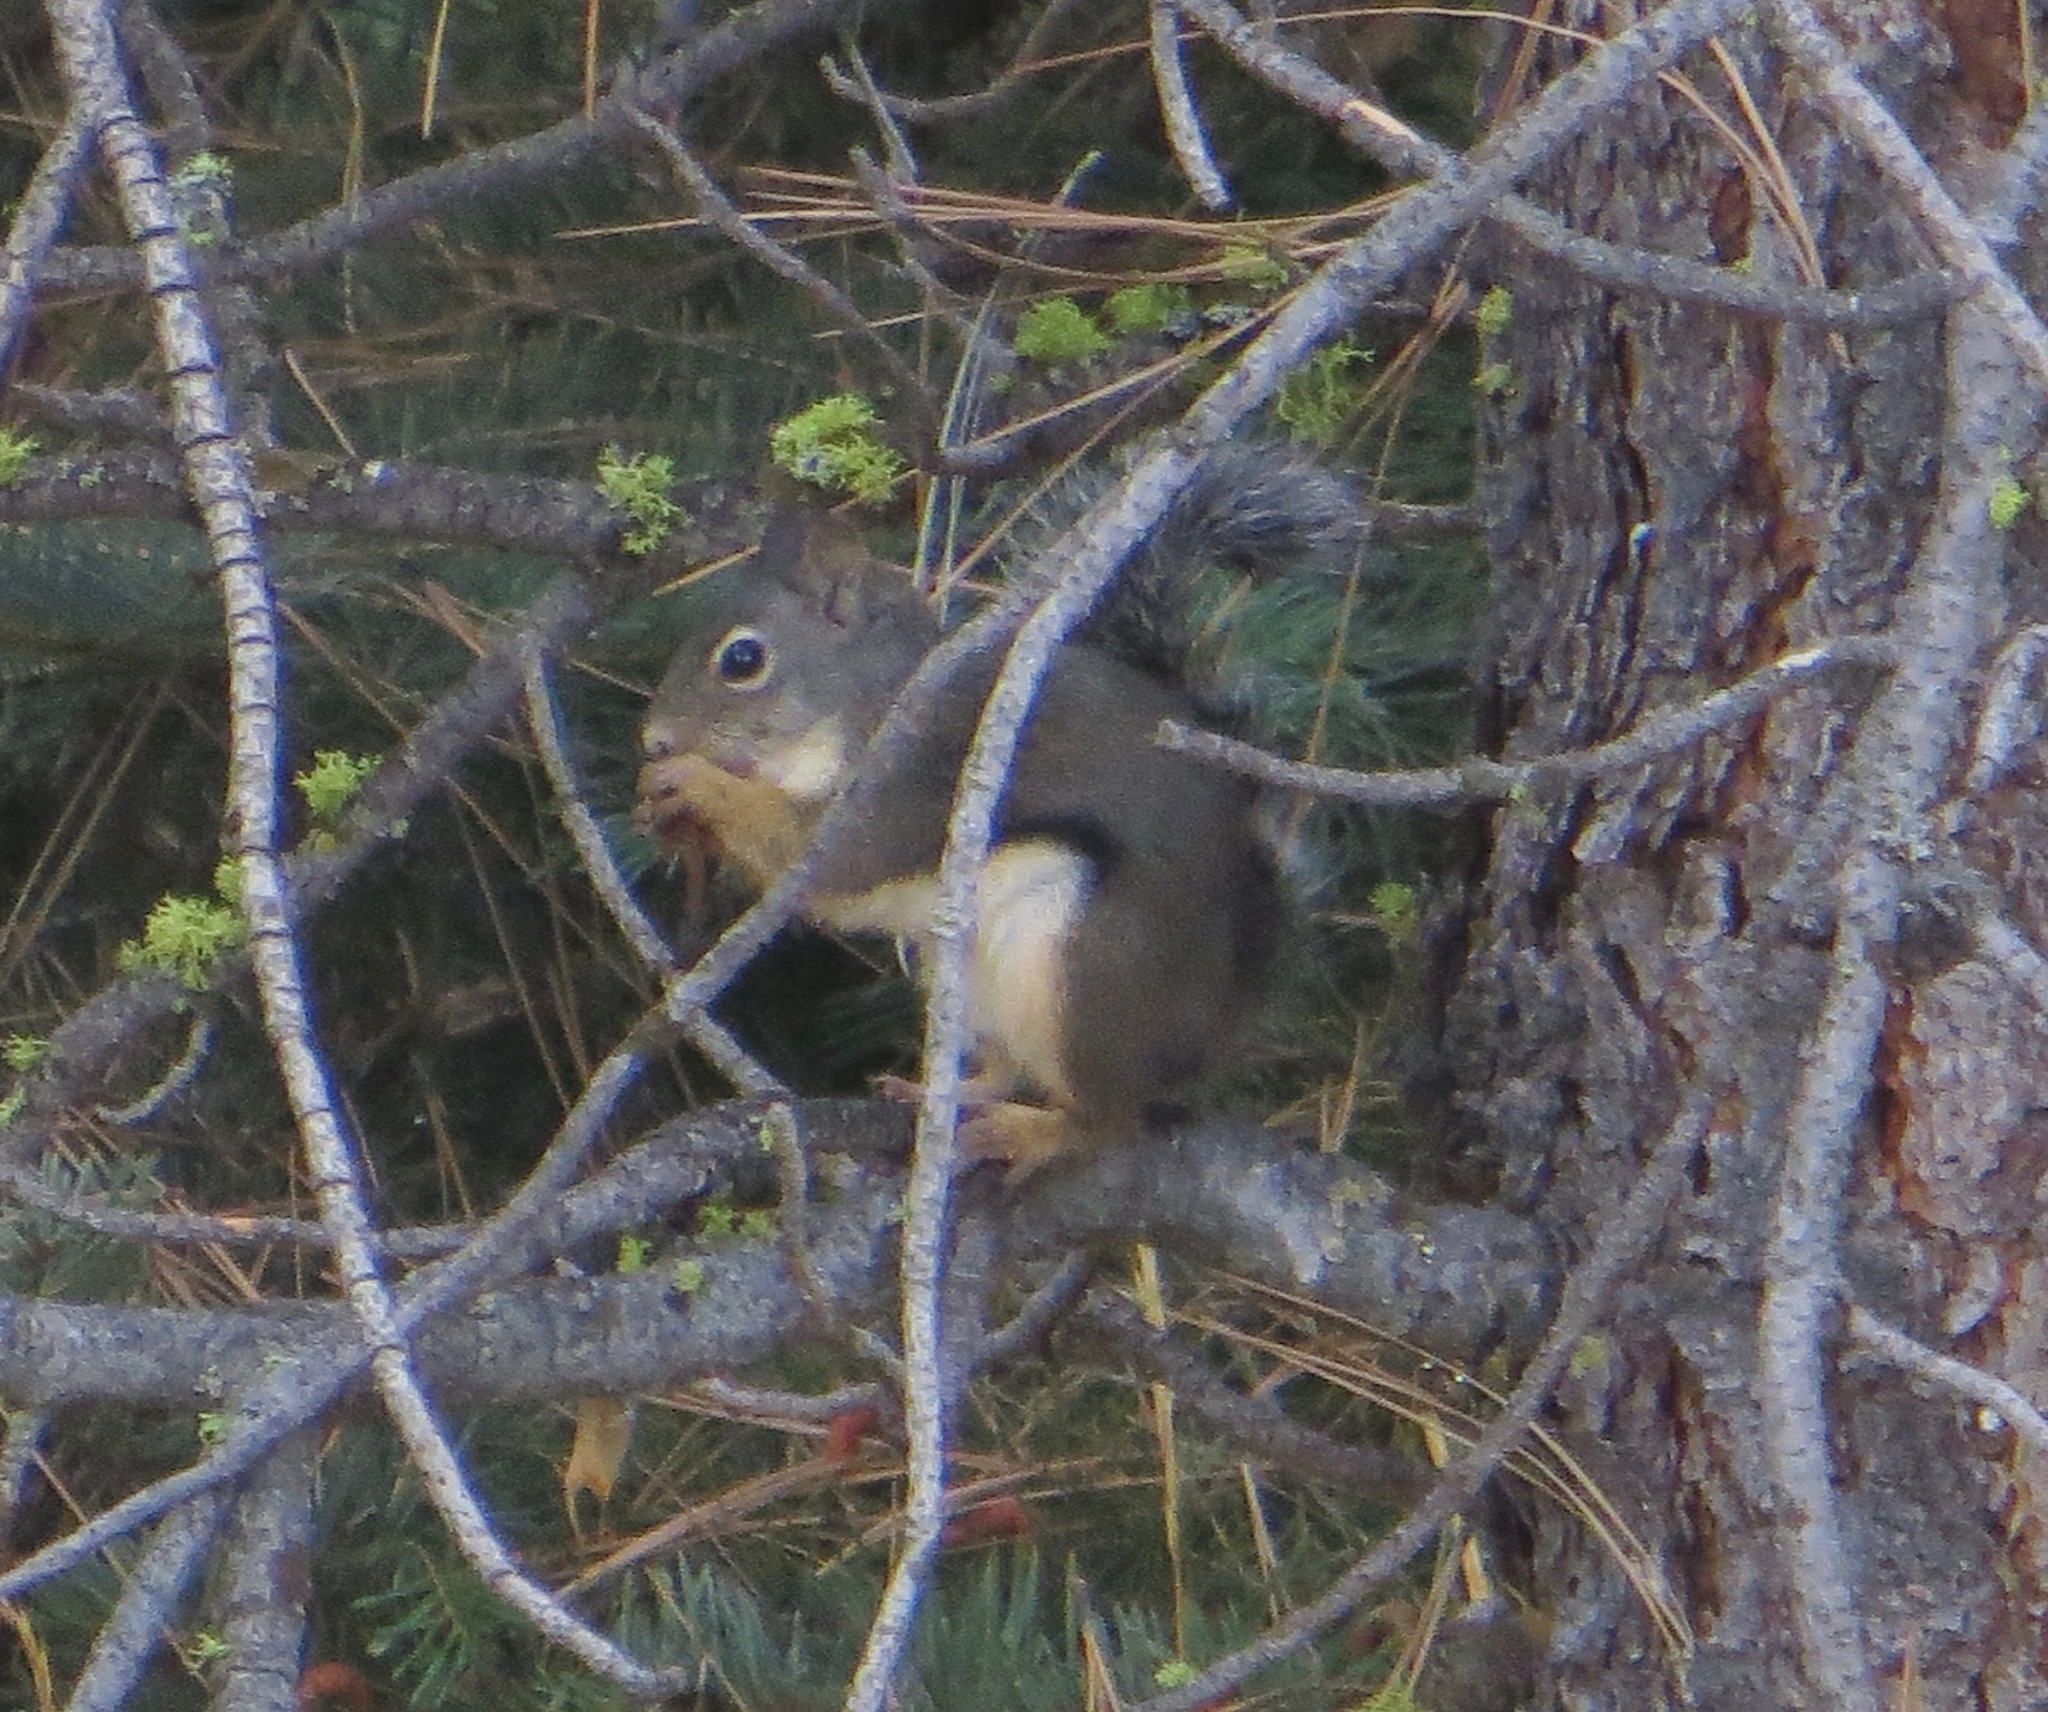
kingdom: Animalia
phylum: Chordata
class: Mammalia
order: Rodentia
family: Sciuridae
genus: Tamiasciurus
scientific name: Tamiasciurus douglasii
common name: Douglas's squirrel
